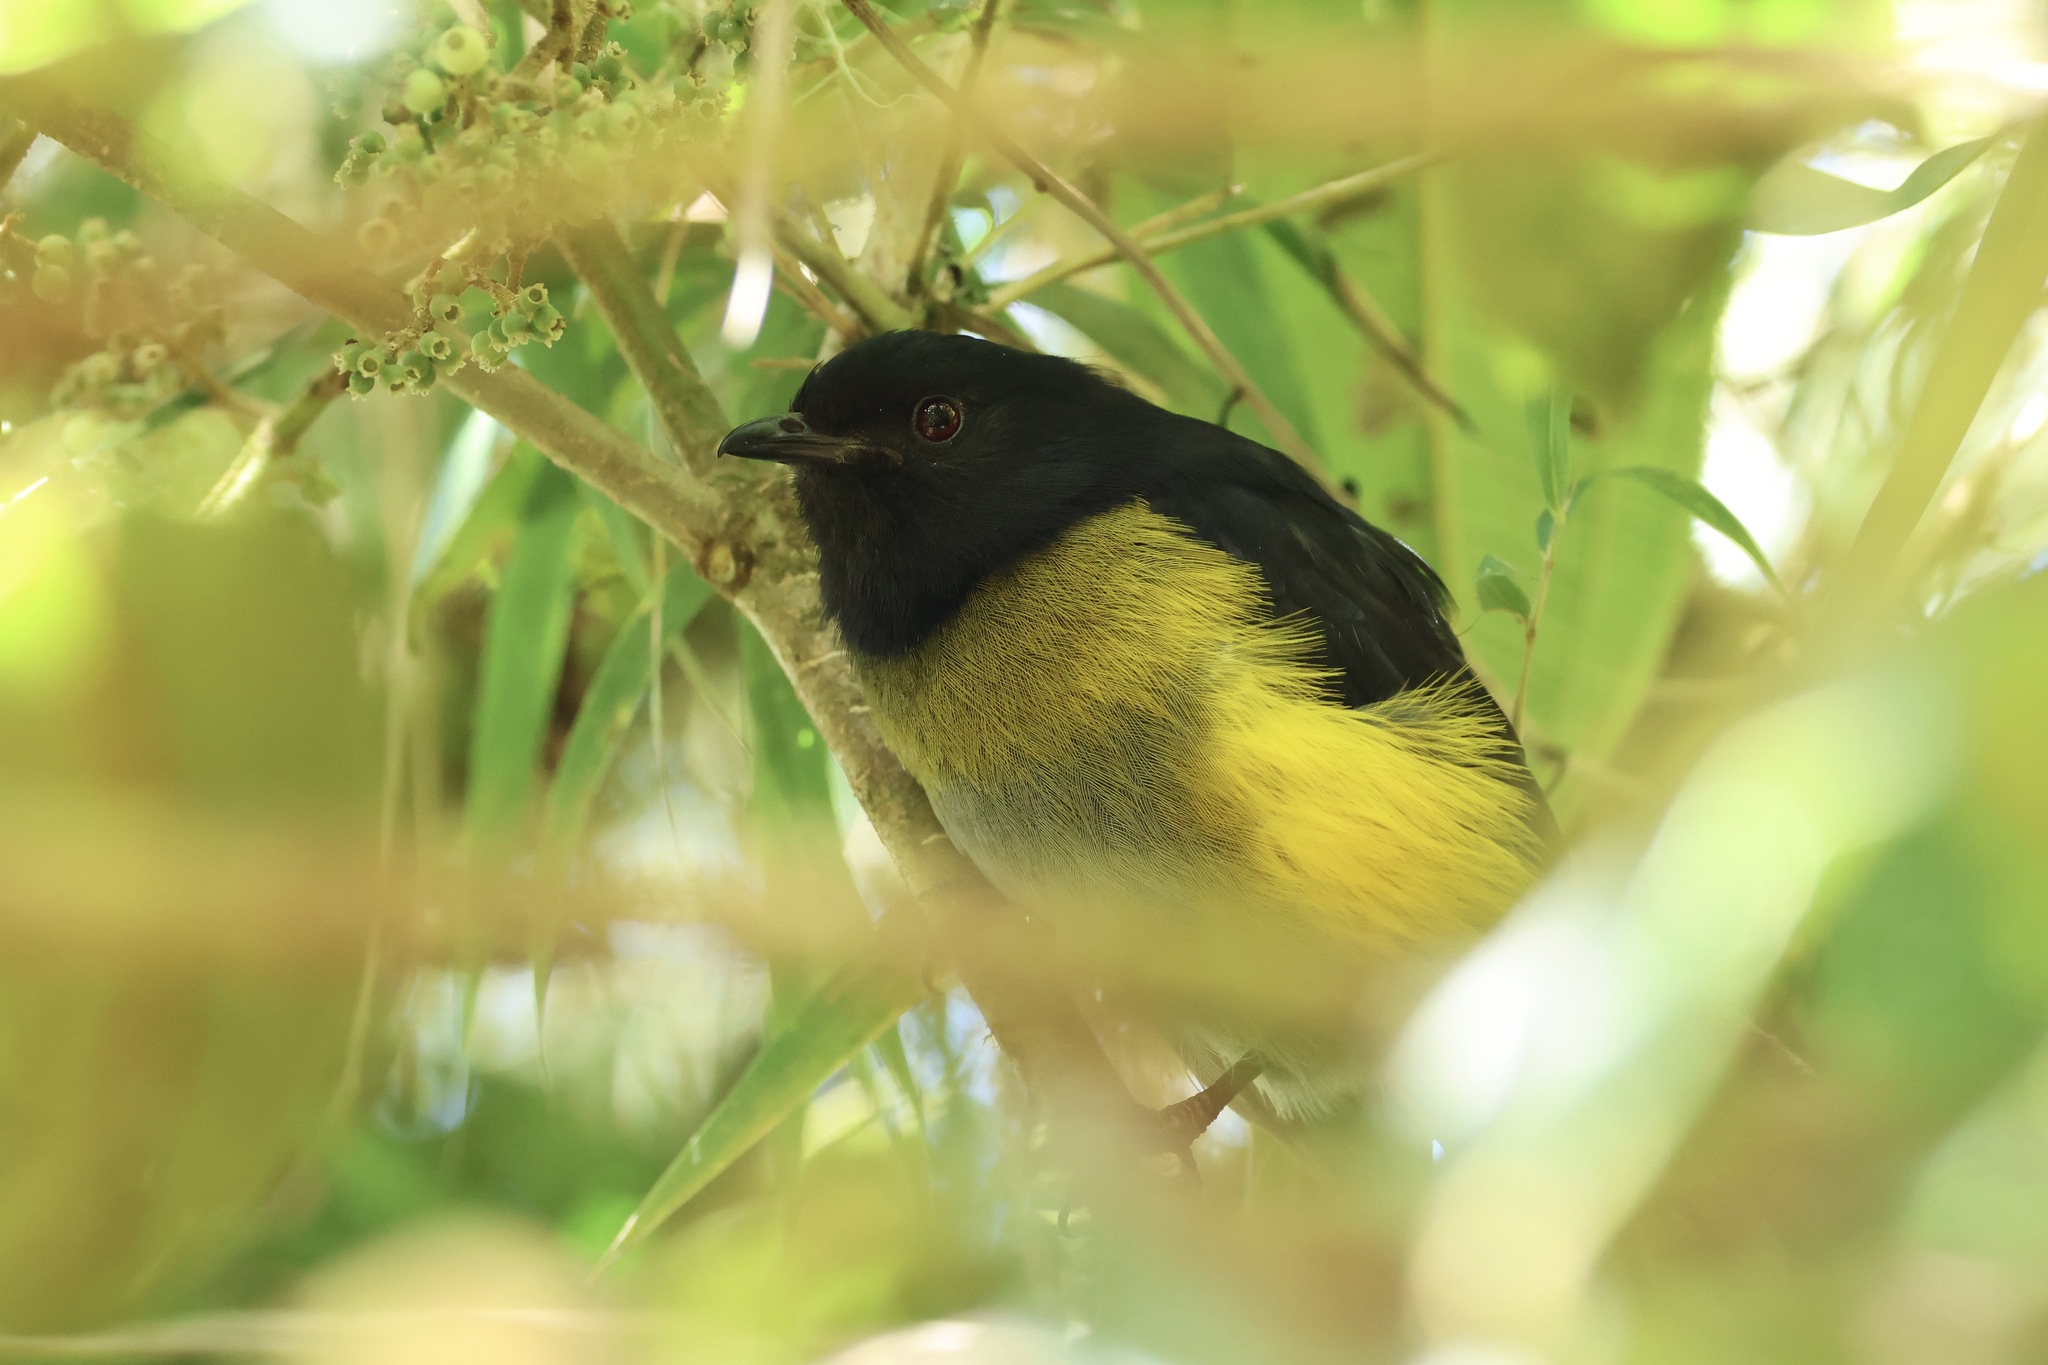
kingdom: Animalia
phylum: Chordata
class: Aves
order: Passeriformes
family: Ptilogonatidae
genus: Phainoptila
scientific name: Phainoptila melanoxantha
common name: Black-and-yellow phainoptila
